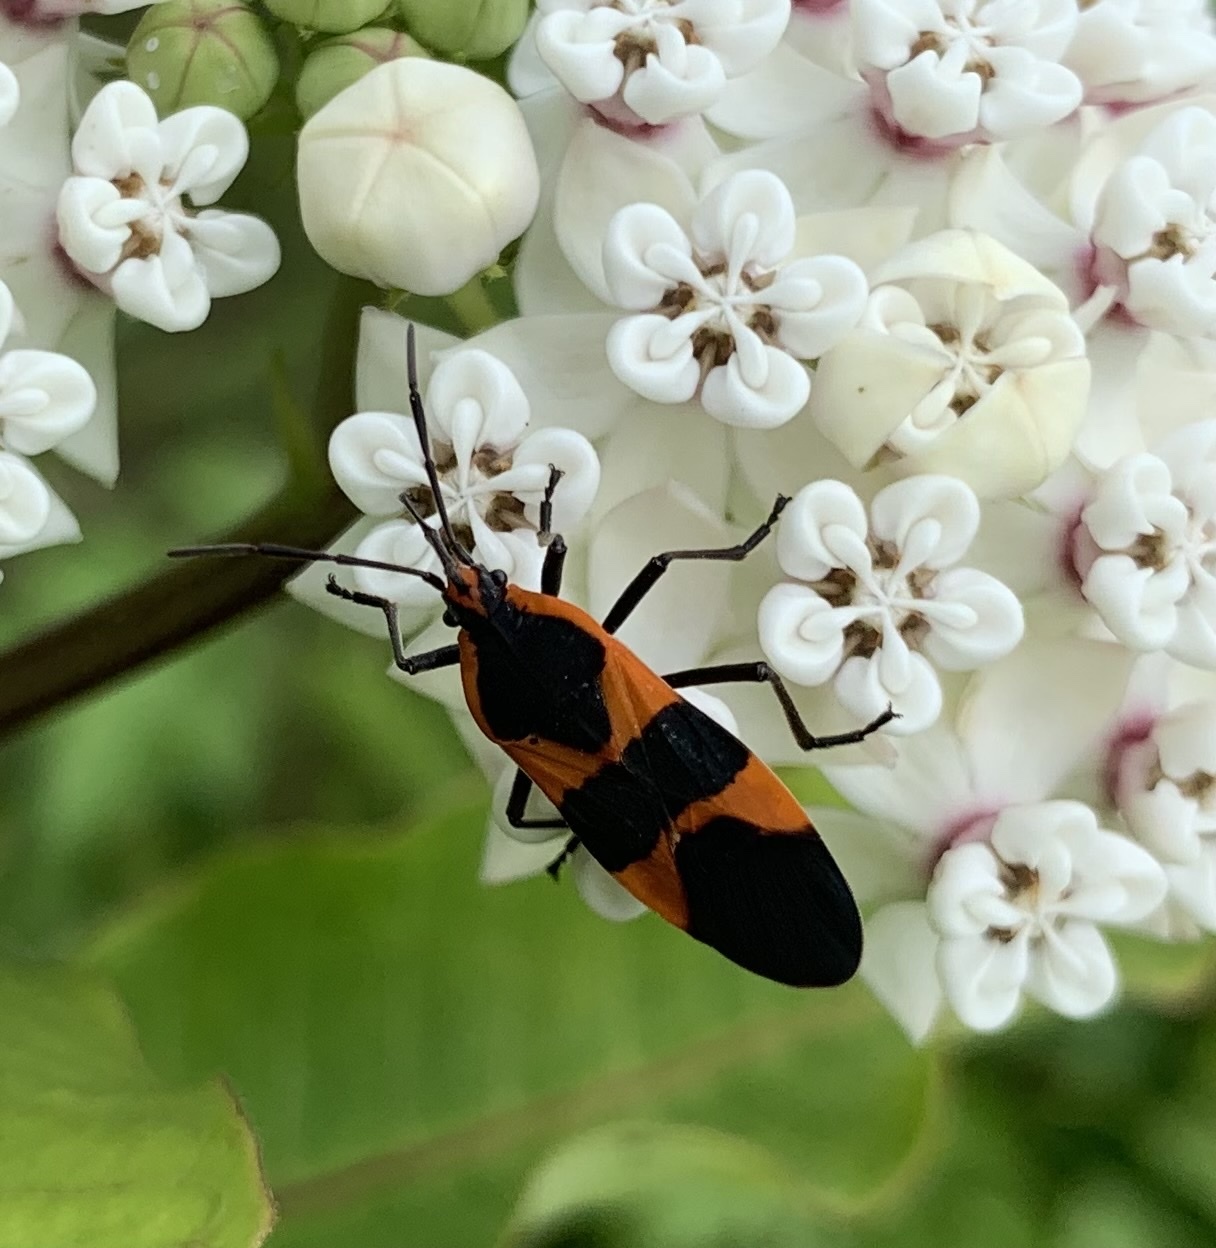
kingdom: Animalia
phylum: Arthropoda
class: Insecta
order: Hemiptera
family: Lygaeidae
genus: Oncopeltus
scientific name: Oncopeltus fasciatus
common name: Large milkweed bug
